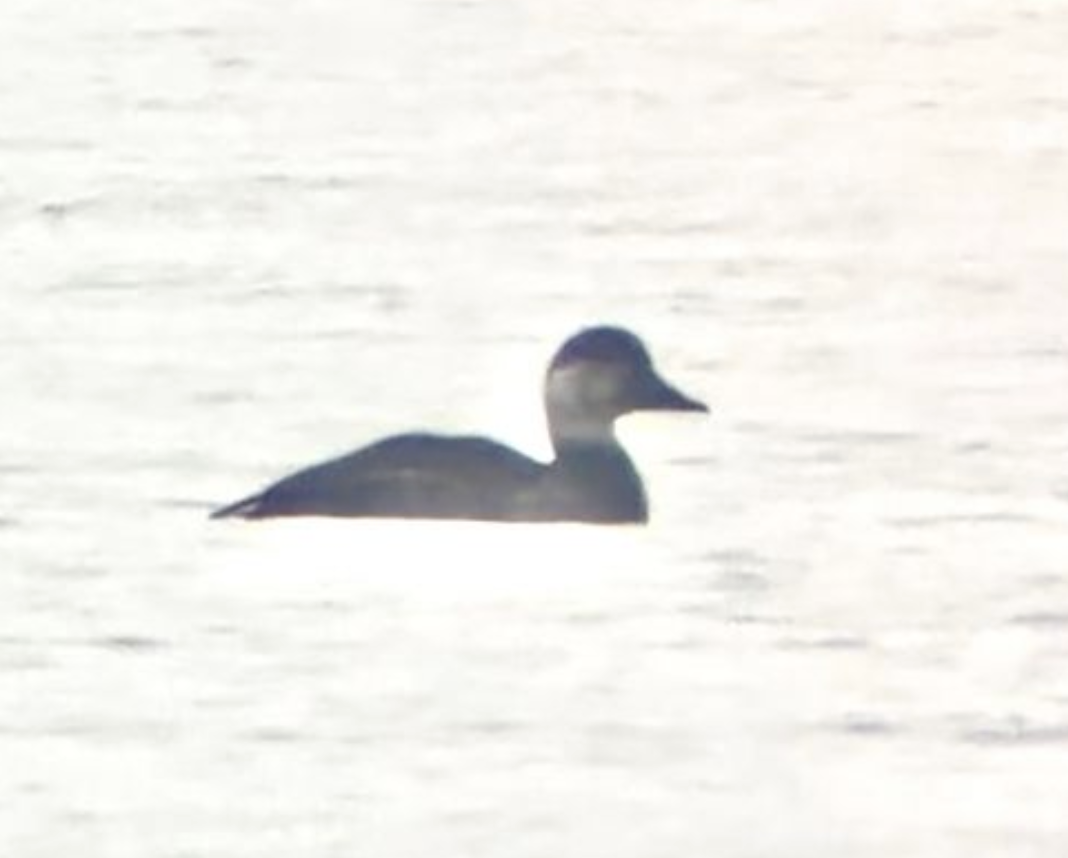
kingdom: Animalia
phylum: Chordata
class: Aves
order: Anseriformes
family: Anatidae
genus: Melanitta
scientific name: Melanitta nigra
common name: Common scoter
